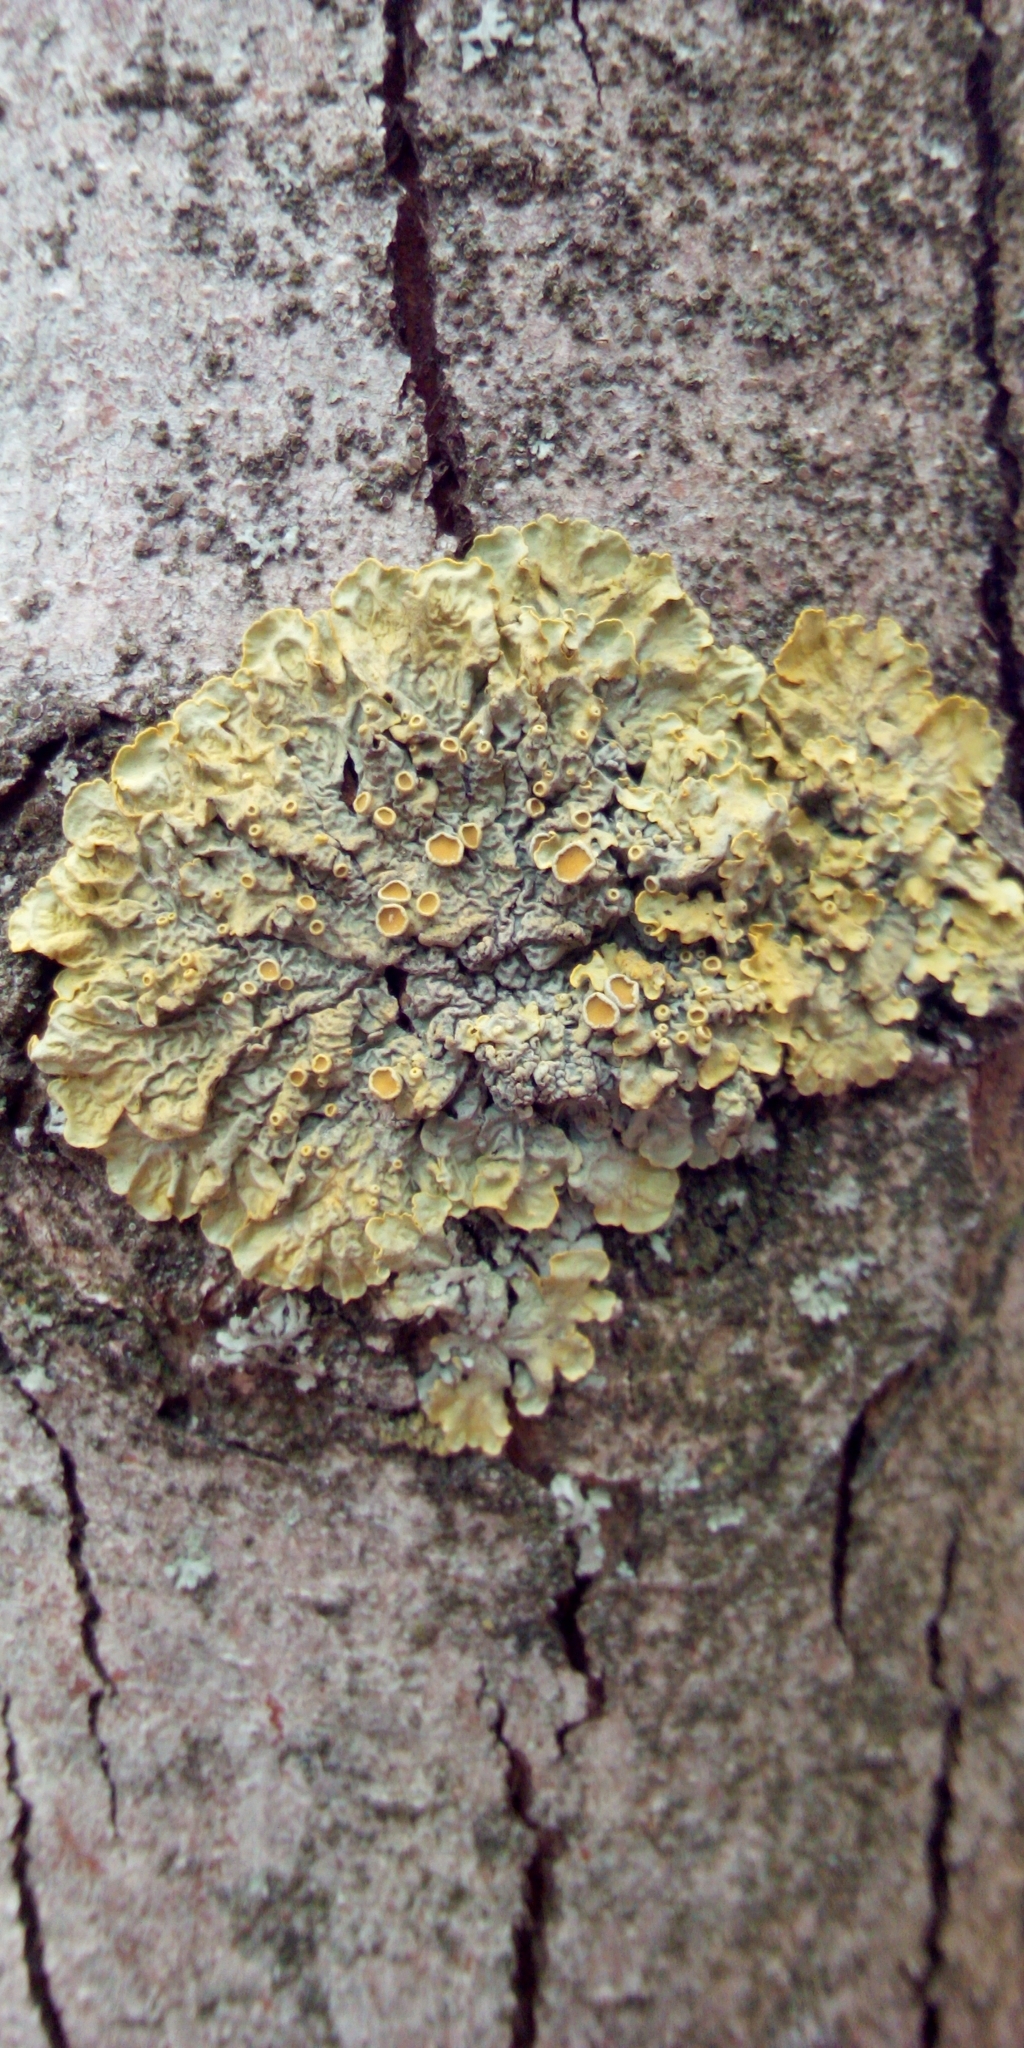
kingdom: Fungi
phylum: Ascomycota
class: Lecanoromycetes
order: Teloschistales
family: Teloschistaceae
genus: Xanthoria
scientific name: Xanthoria parietina
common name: Common orange lichen
